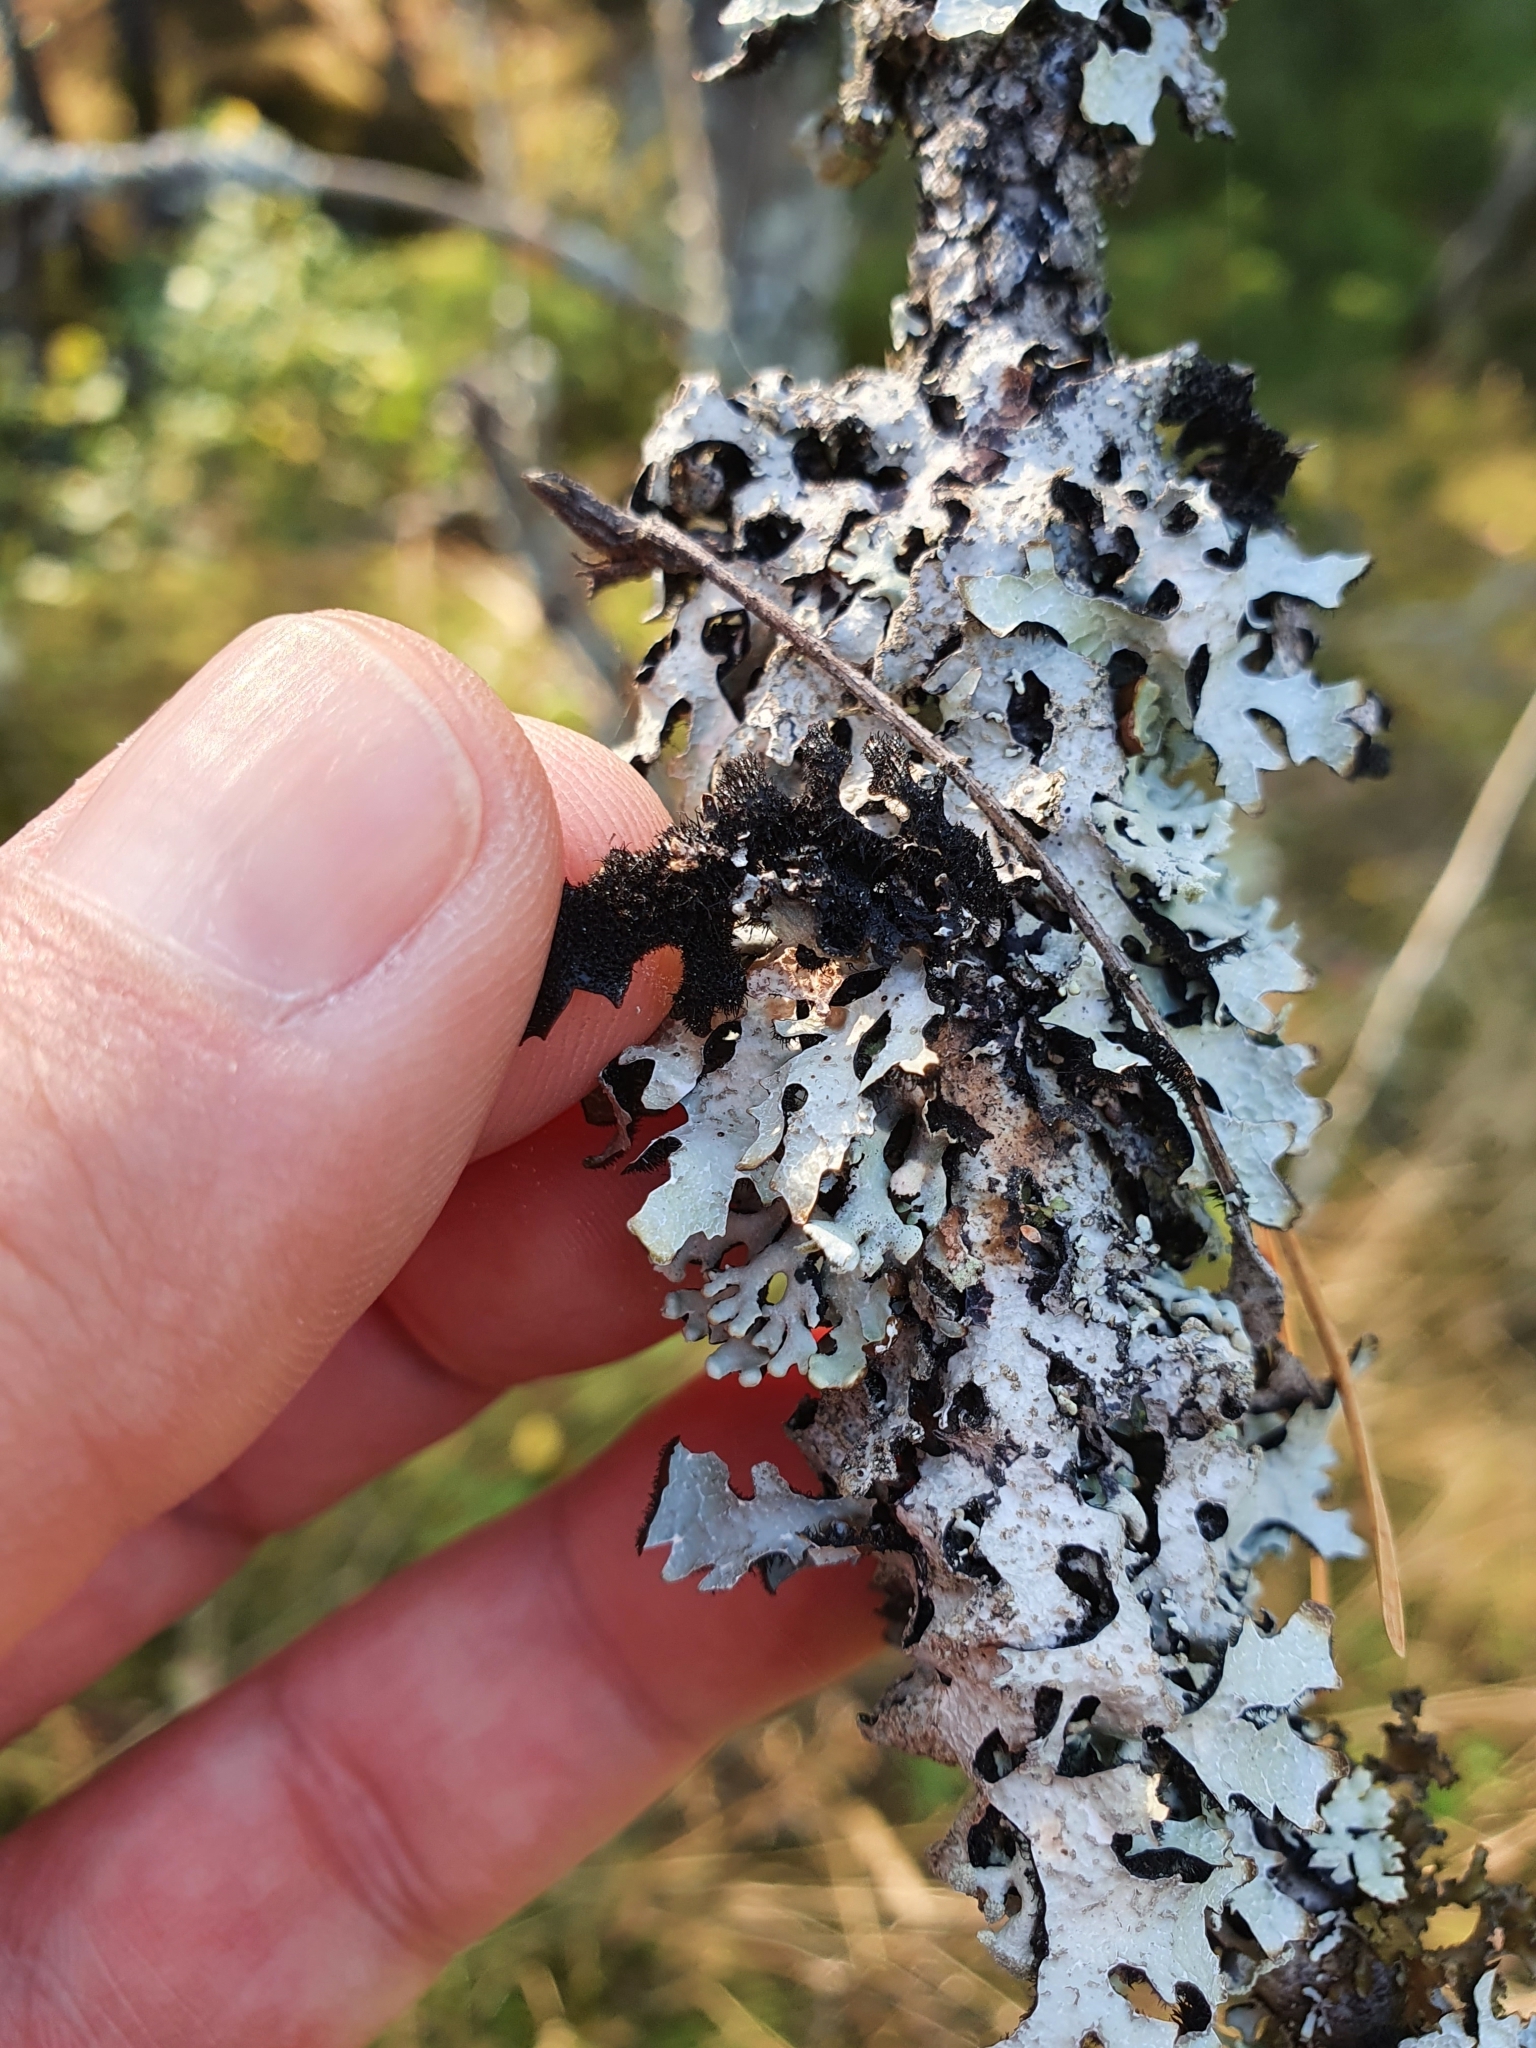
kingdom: Fungi
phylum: Ascomycota
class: Lecanoromycetes
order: Lecanorales
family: Parmeliaceae
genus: Parmelia
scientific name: Parmelia sulcata
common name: Netted shield lichen
